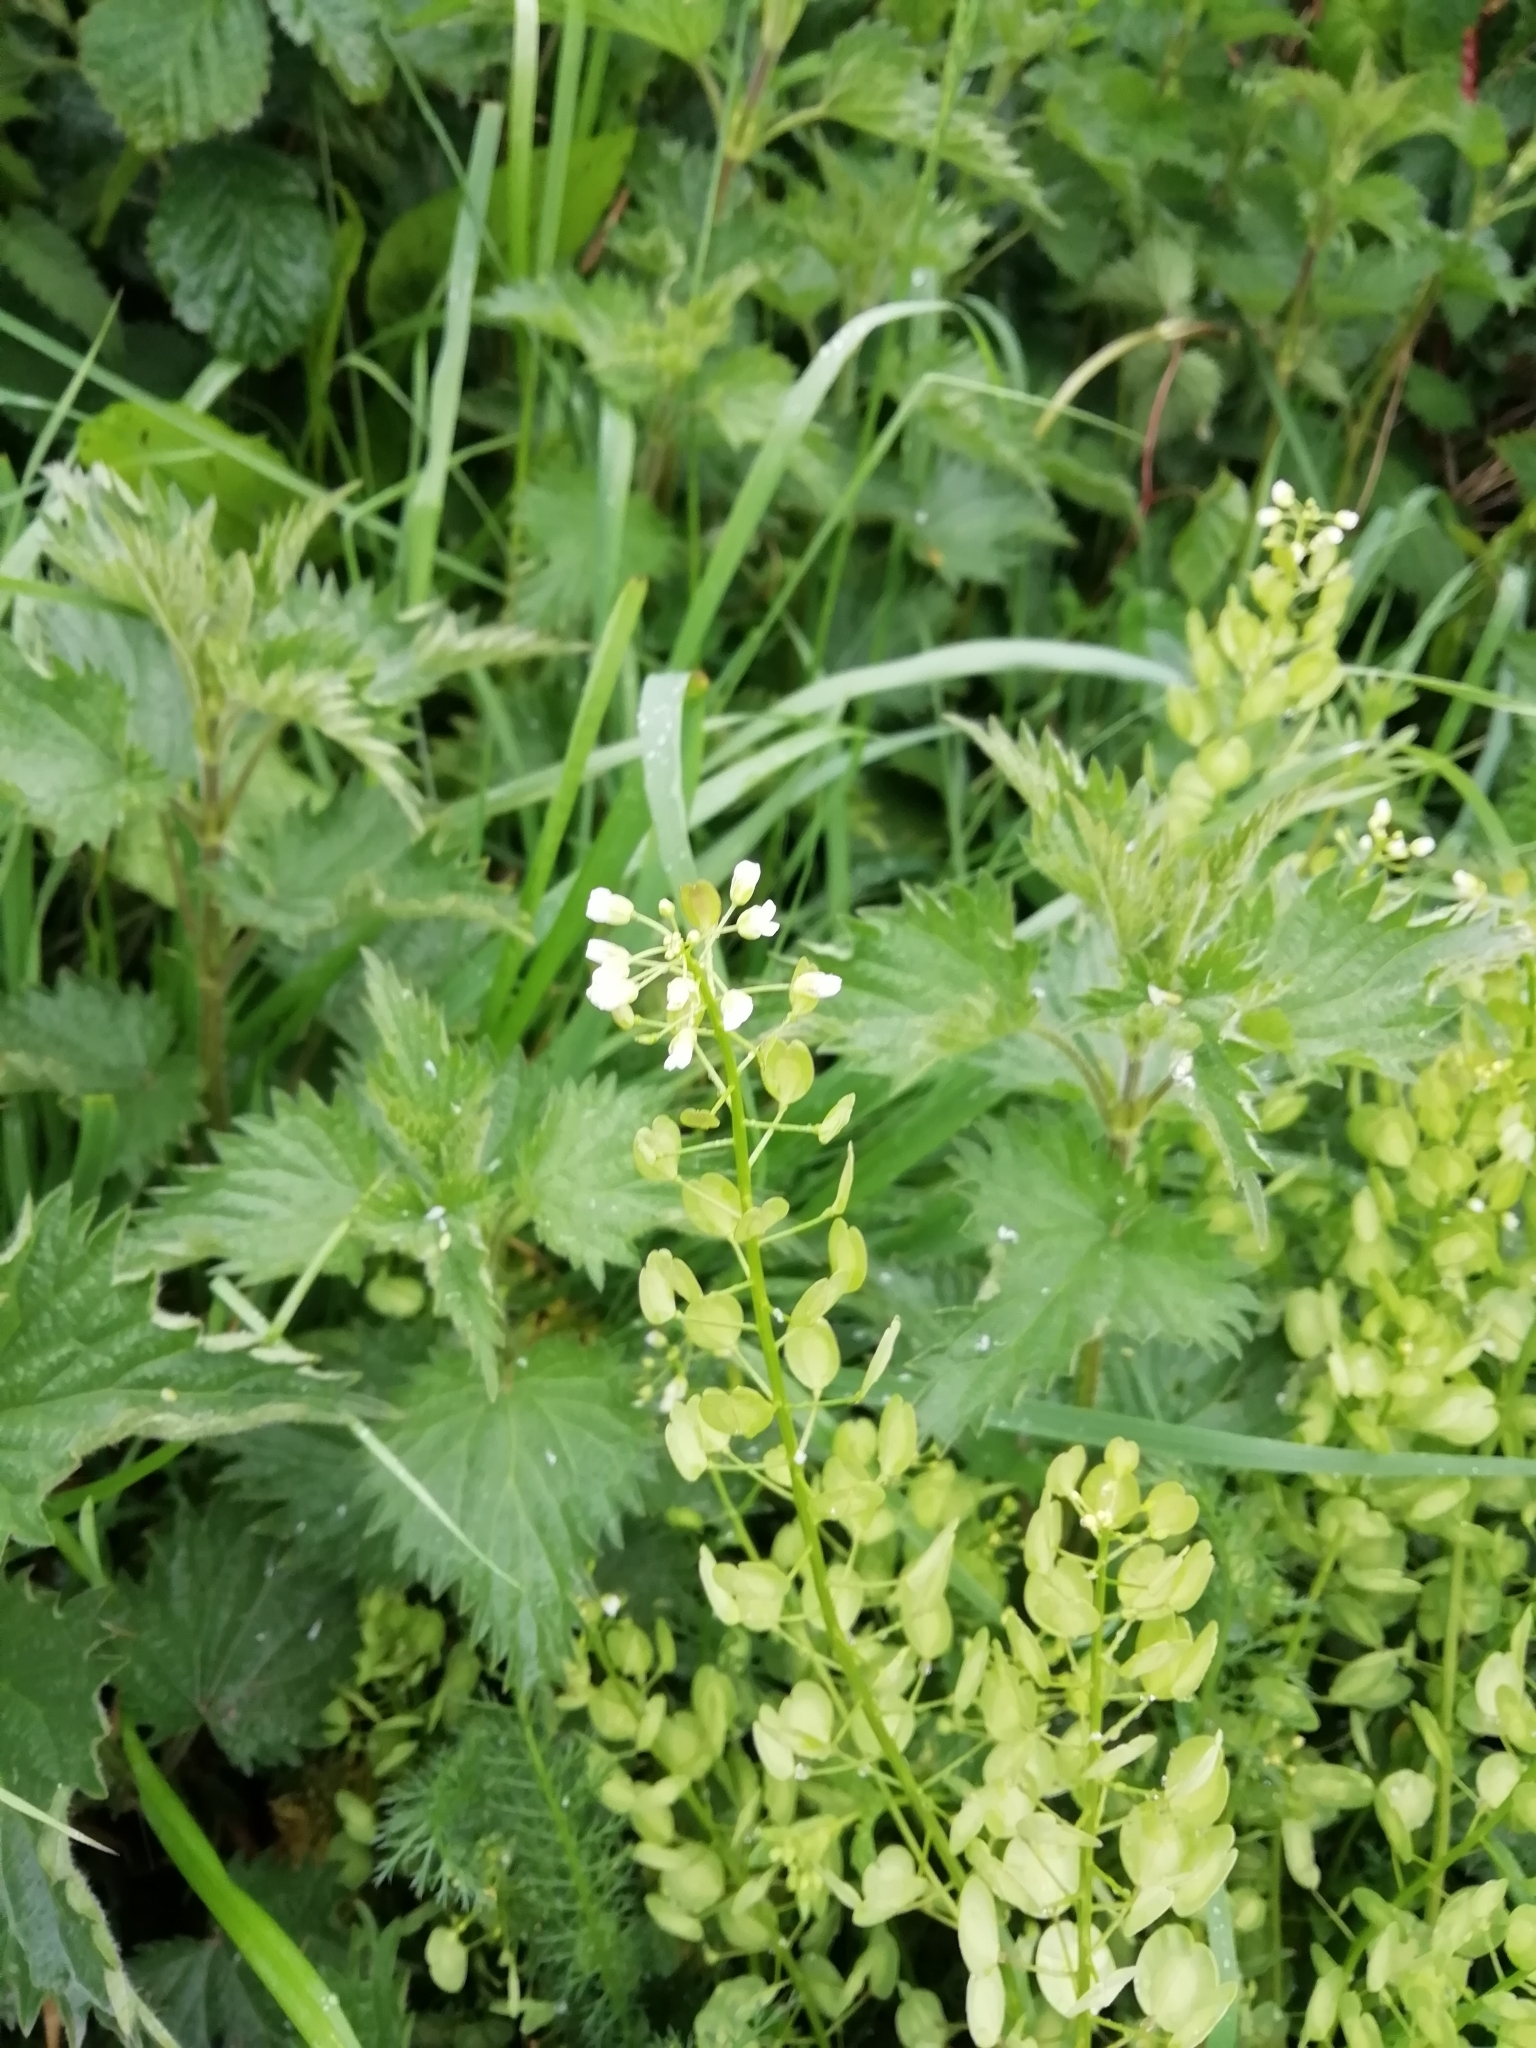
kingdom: Plantae
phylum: Tracheophyta
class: Magnoliopsida
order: Brassicales
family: Brassicaceae
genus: Thlaspi
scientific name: Thlaspi arvense
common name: Field pennycress
